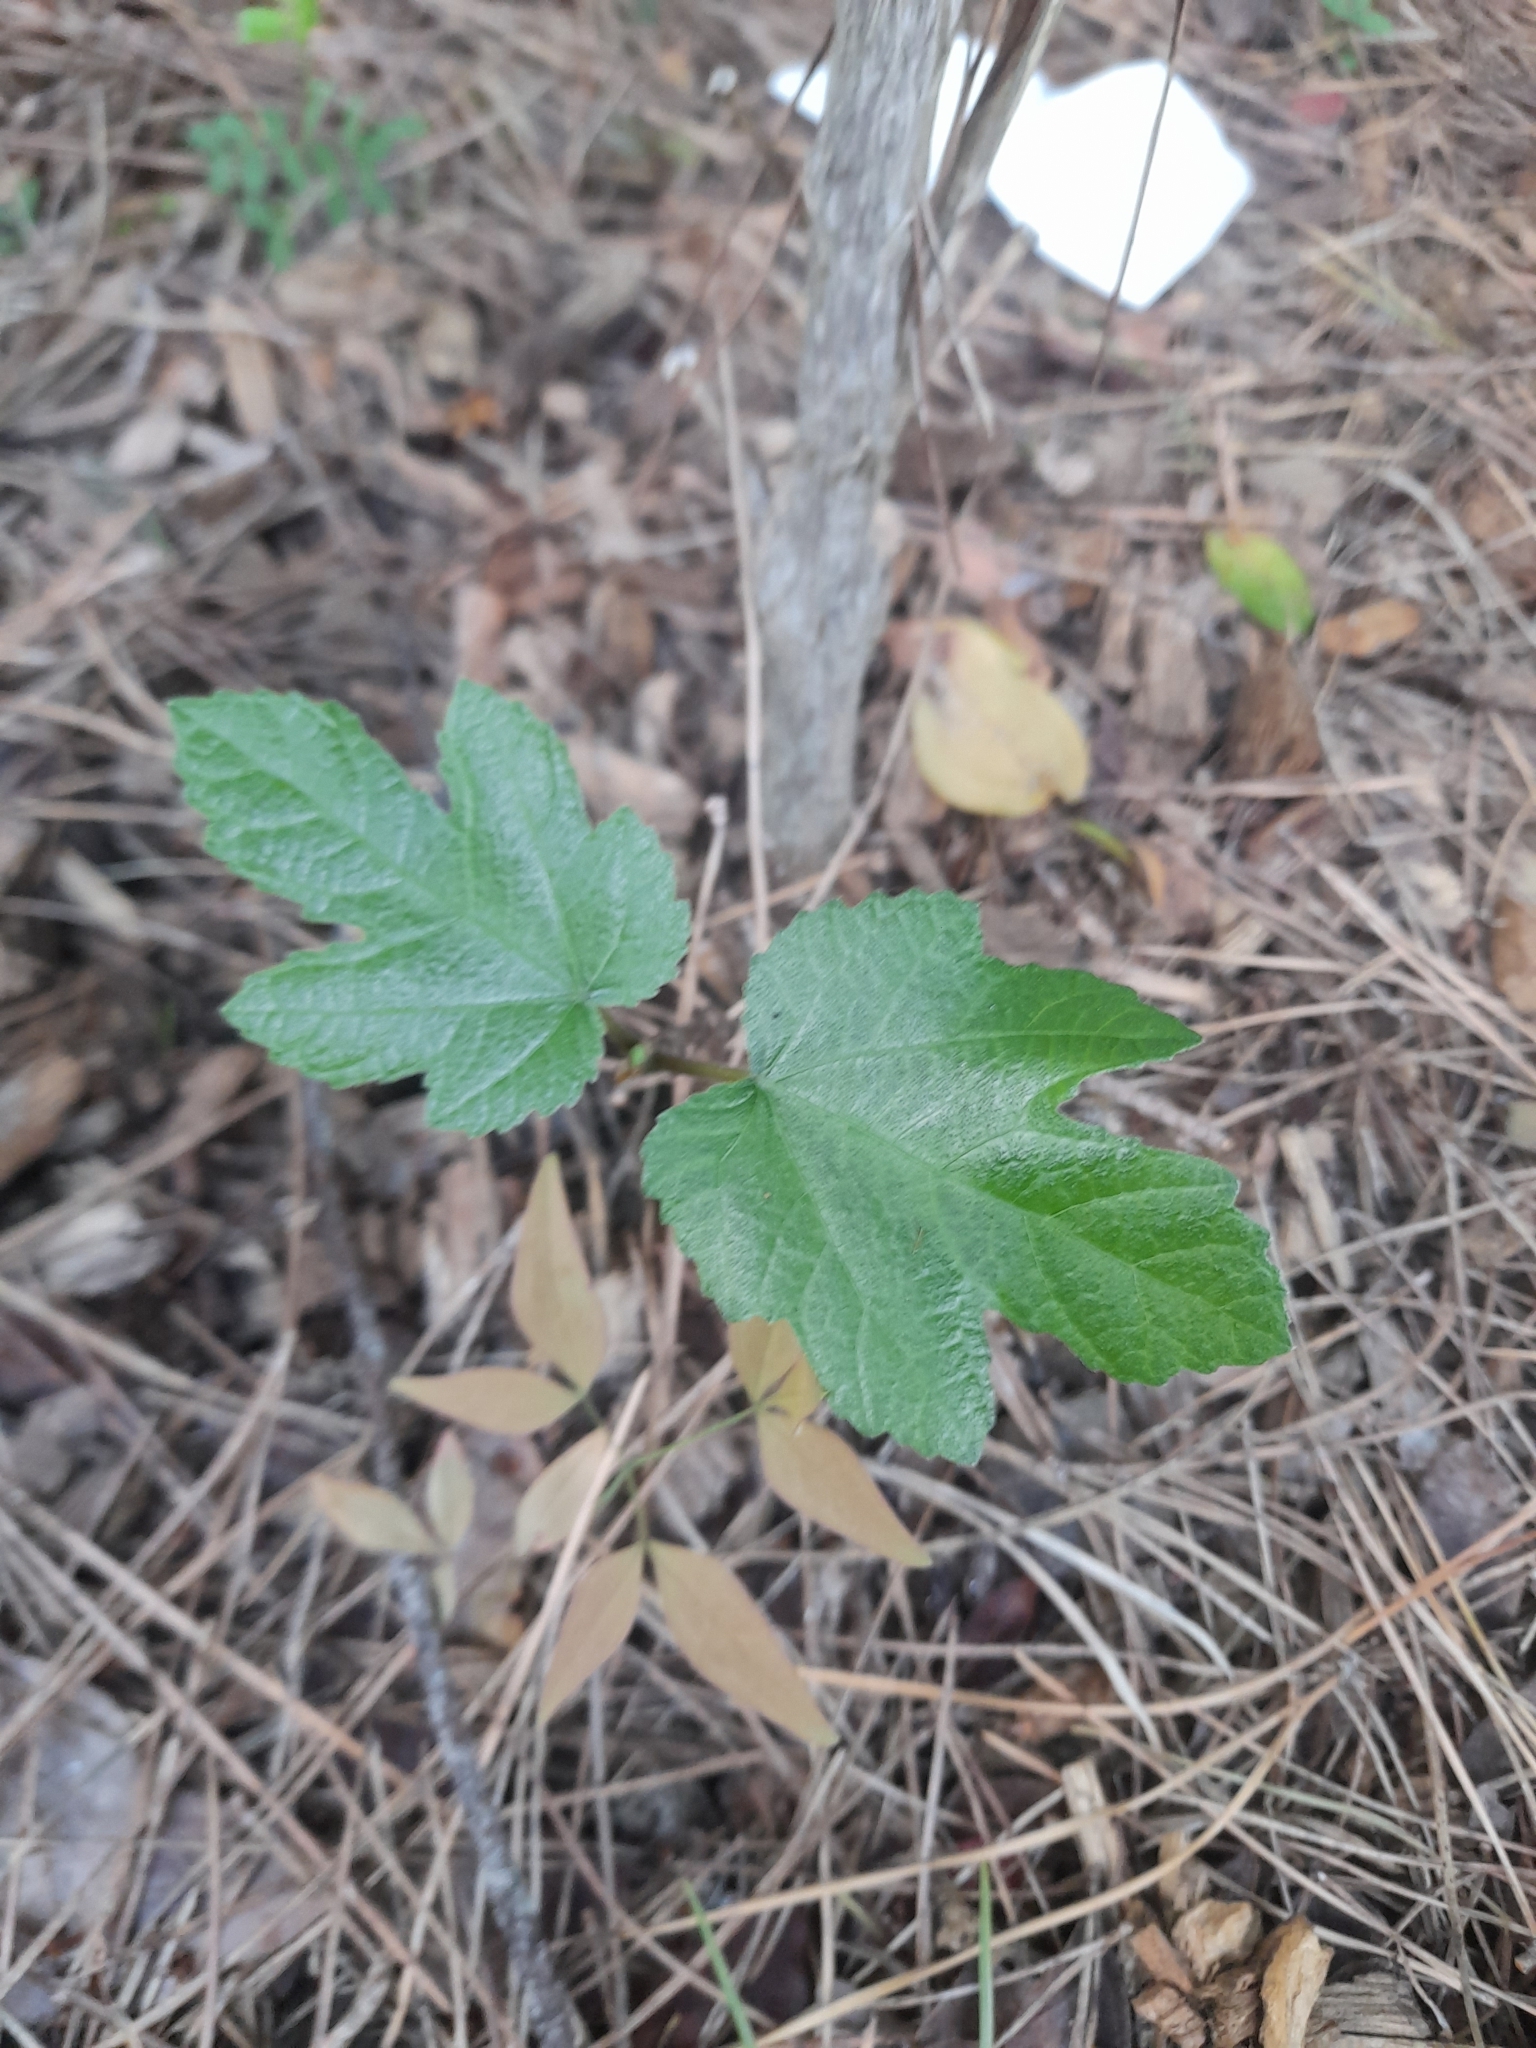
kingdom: Plantae
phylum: Tracheophyta
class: Magnoliopsida
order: Rosales
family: Moraceae
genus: Ficus
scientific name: Ficus carica
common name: Fig
